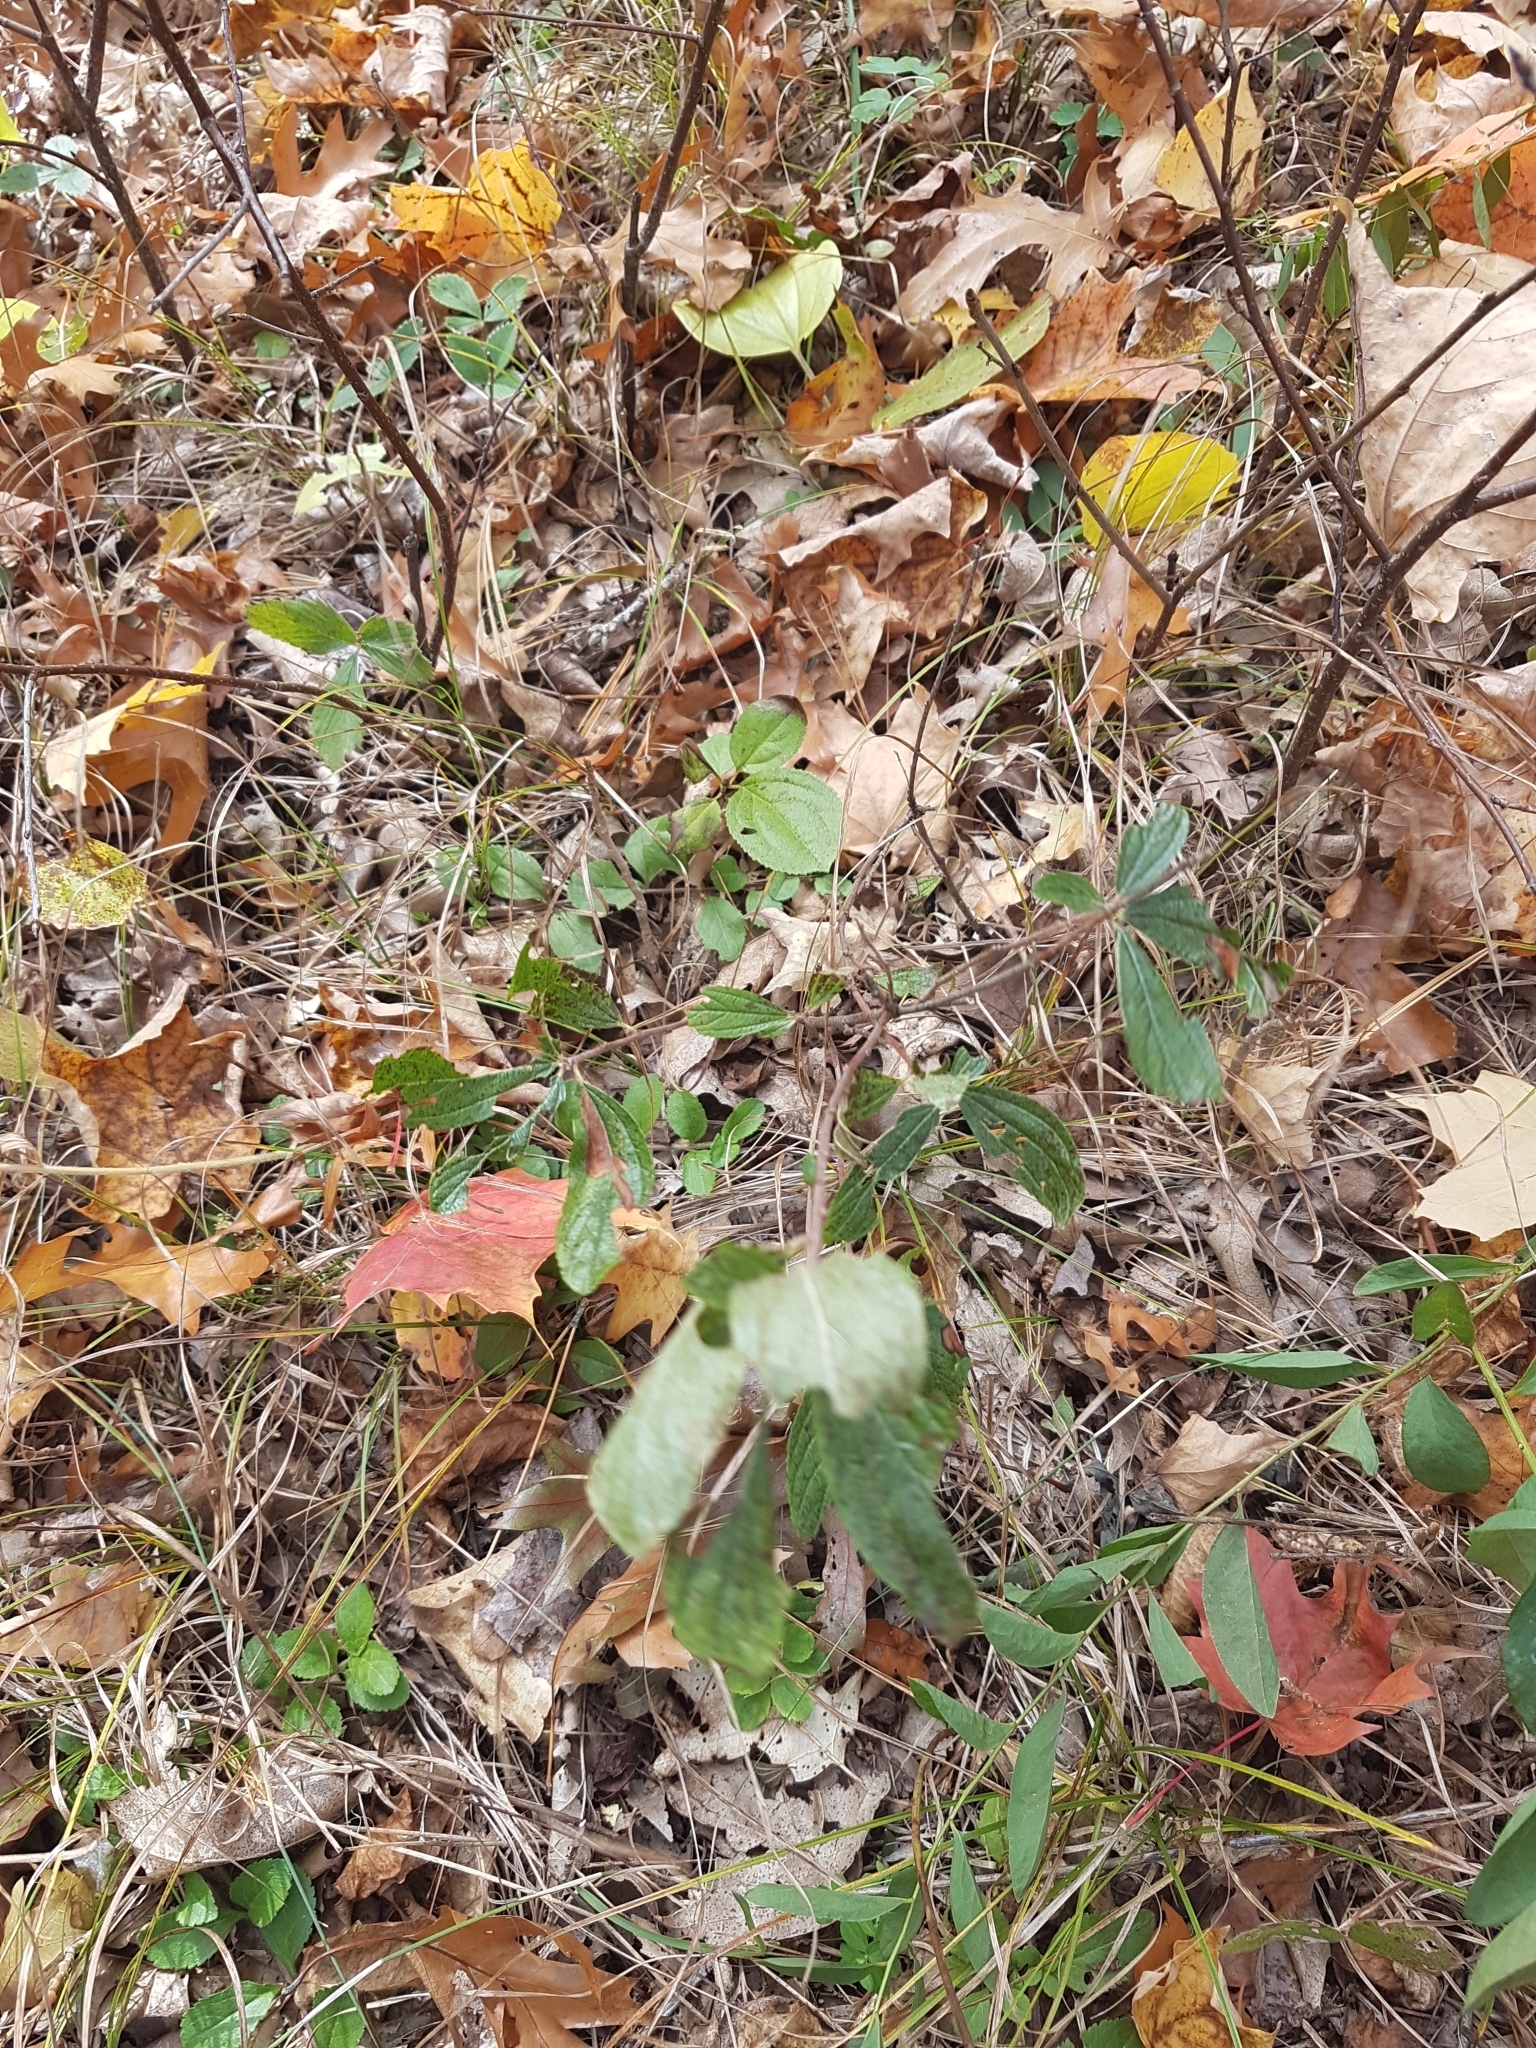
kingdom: Plantae
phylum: Tracheophyta
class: Magnoliopsida
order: Rosales
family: Rhamnaceae
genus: Ceanothus
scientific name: Ceanothus herbaceus
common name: Inland ceanothus
